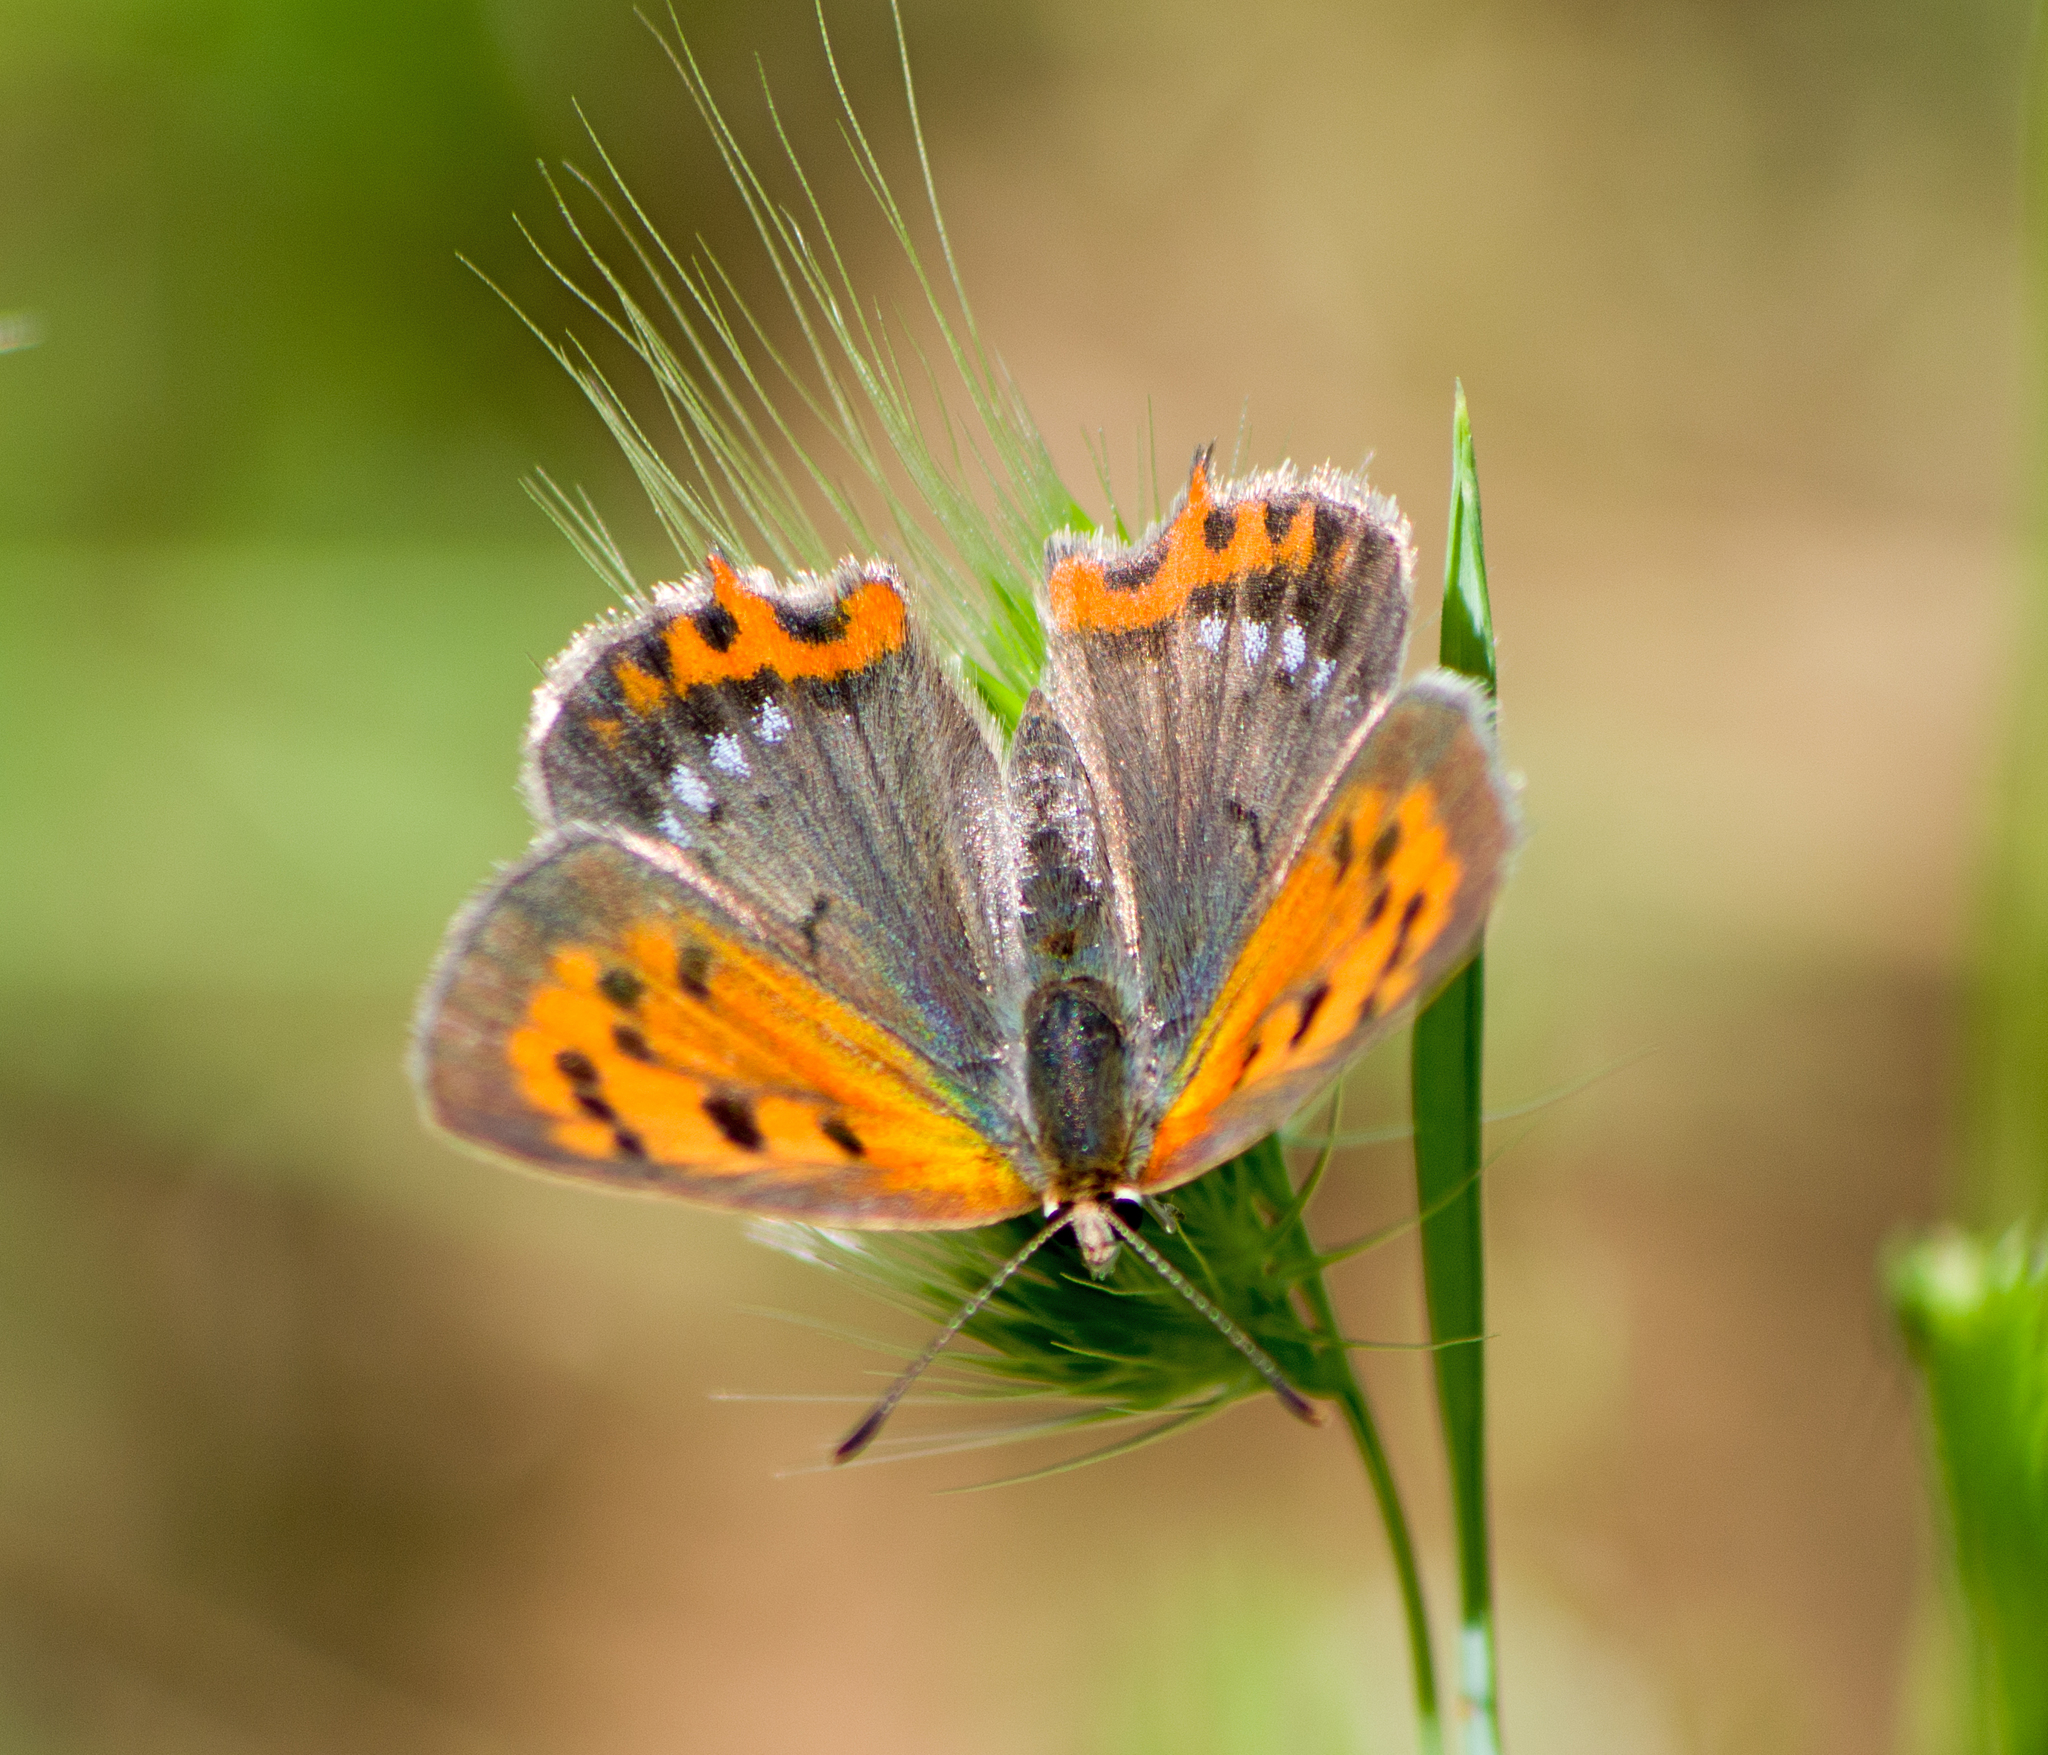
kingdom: Animalia
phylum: Arthropoda
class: Insecta
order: Lepidoptera
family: Lycaenidae
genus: Lycaena
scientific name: Lycaena phlaeas
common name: Small copper
